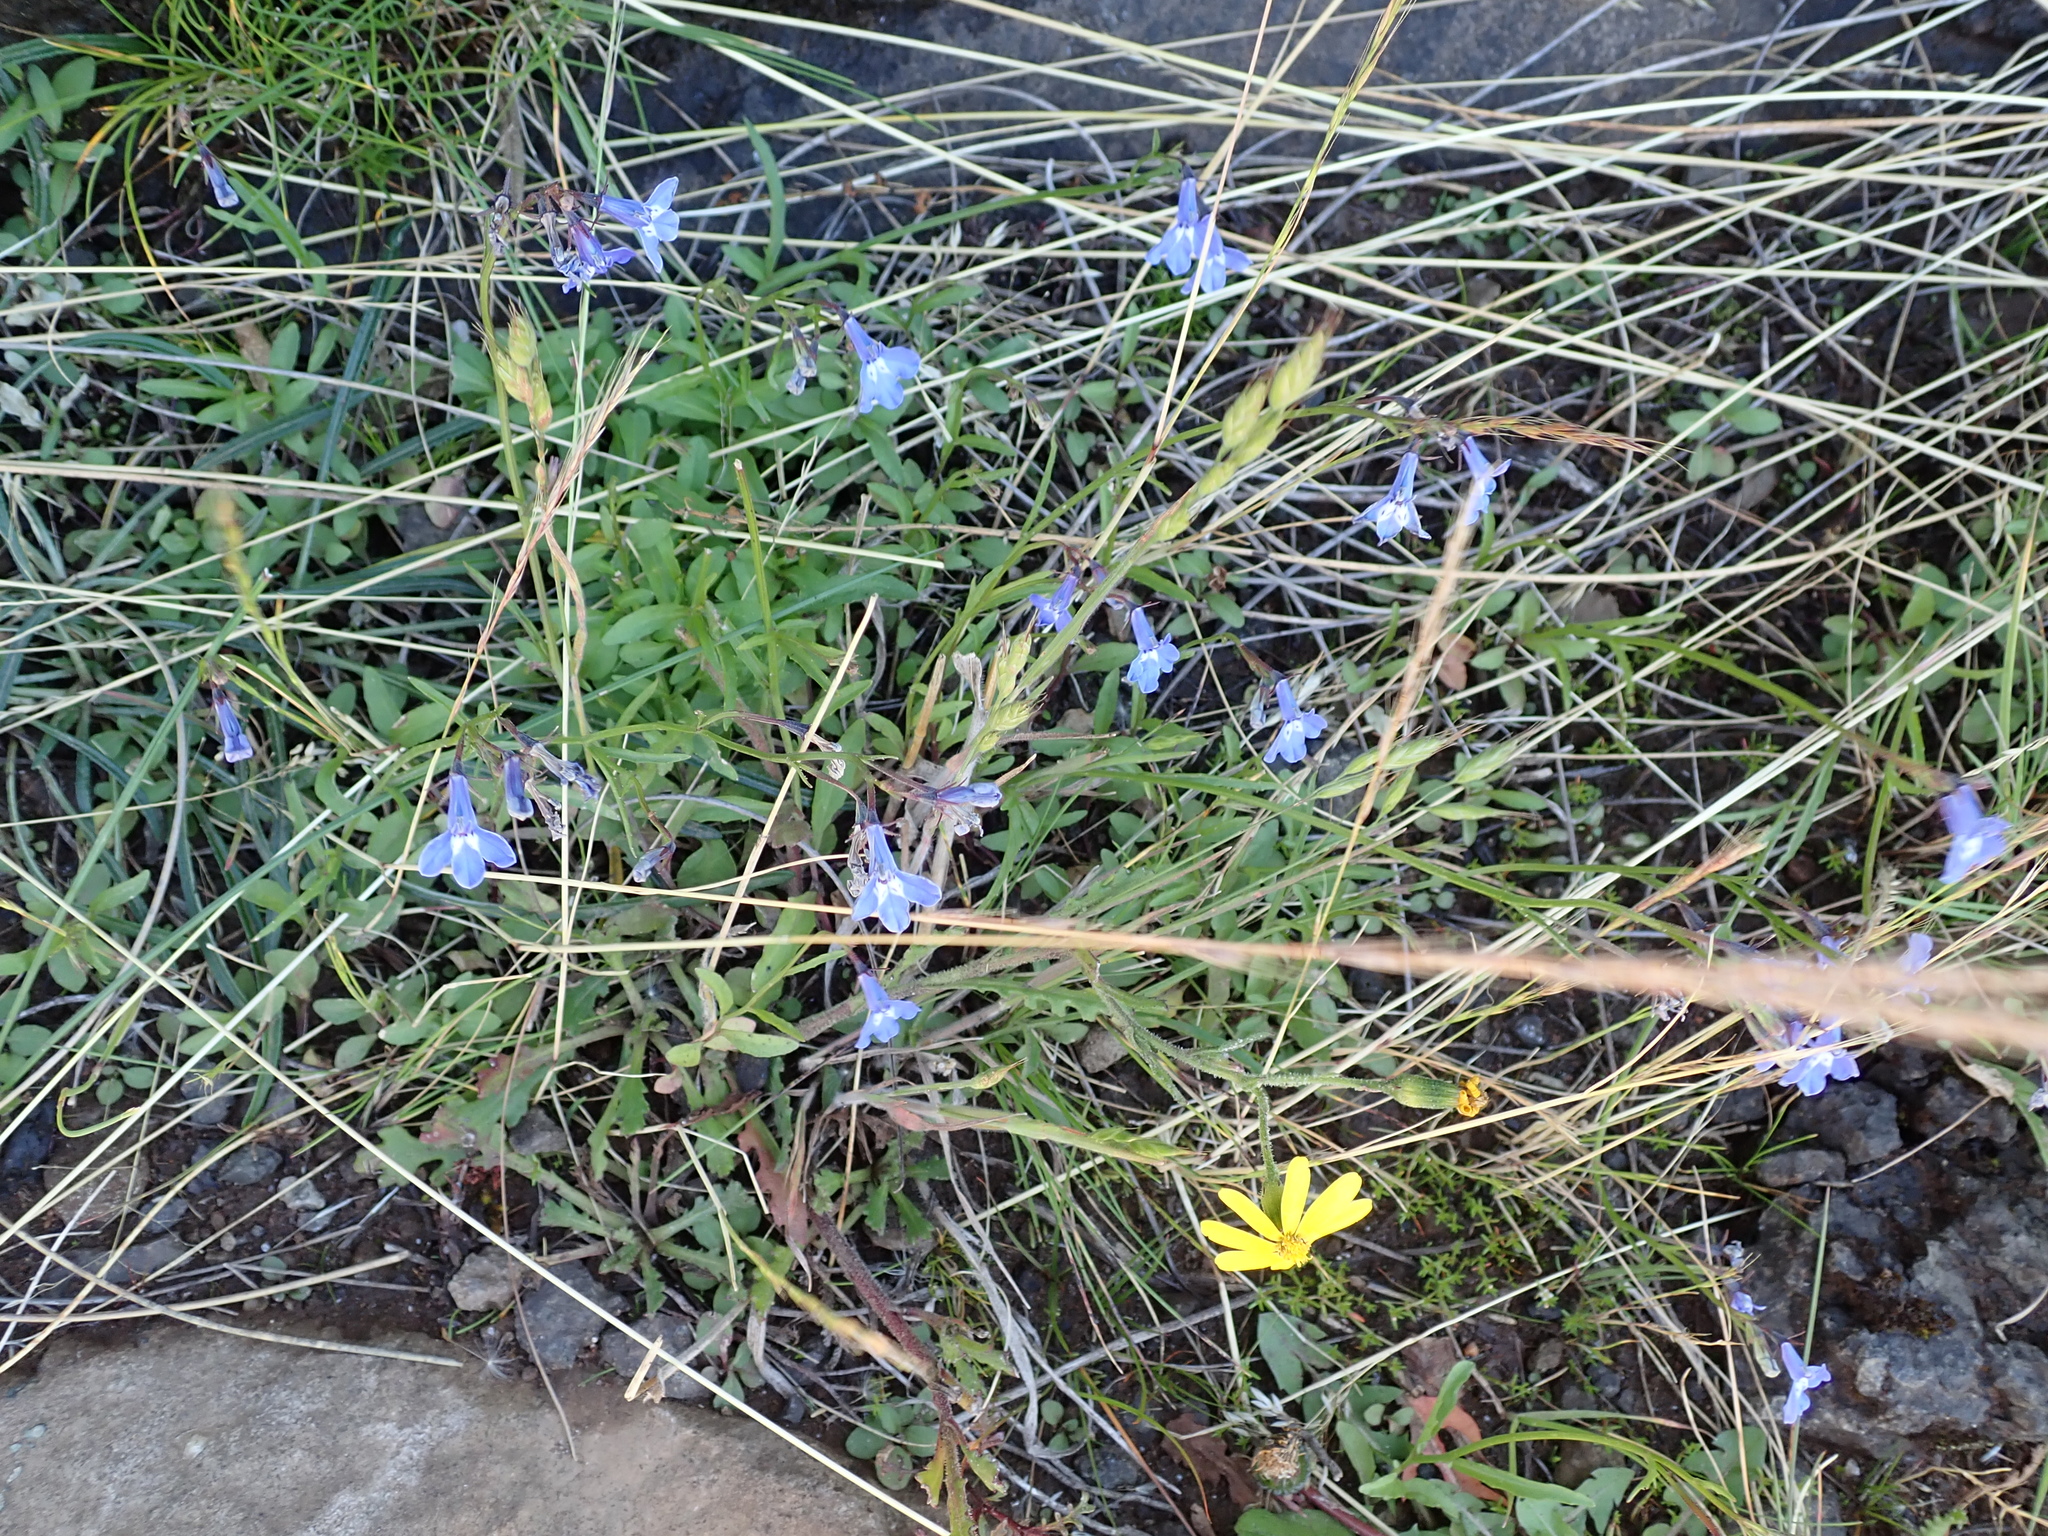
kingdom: Plantae
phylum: Tracheophyta
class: Magnoliopsida
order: Asterales
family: Campanulaceae
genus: Lobelia
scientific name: Lobelia flaccida
